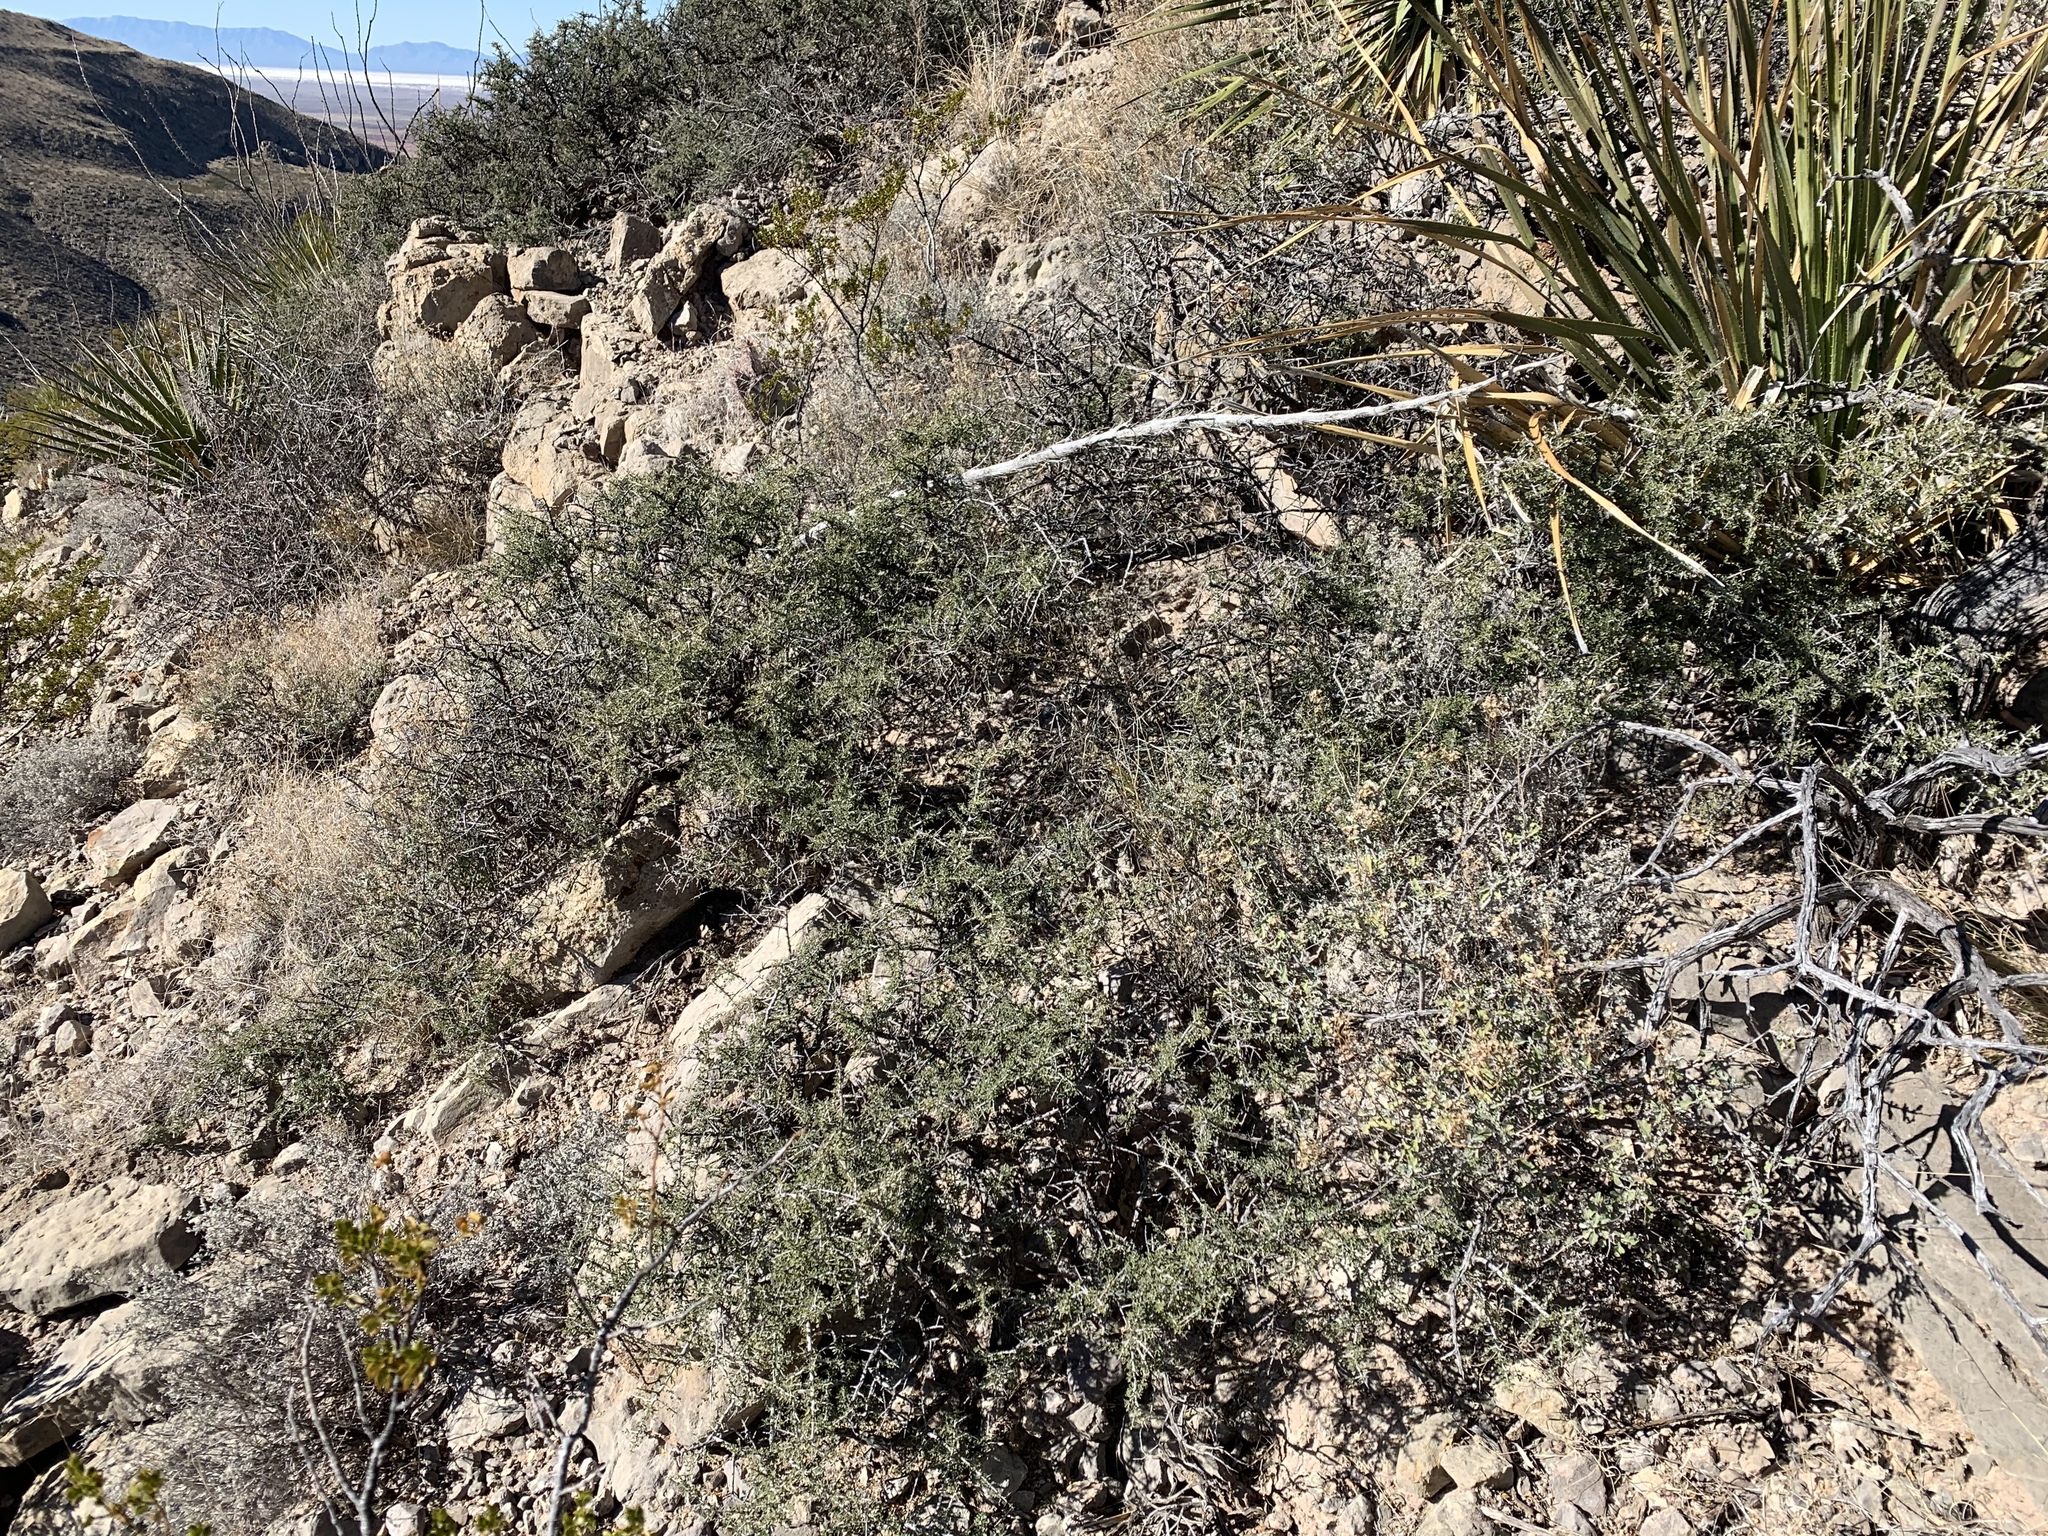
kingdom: Plantae
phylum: Tracheophyta
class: Magnoliopsida
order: Rosales
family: Rhamnaceae
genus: Condalia
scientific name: Condalia warnockii
